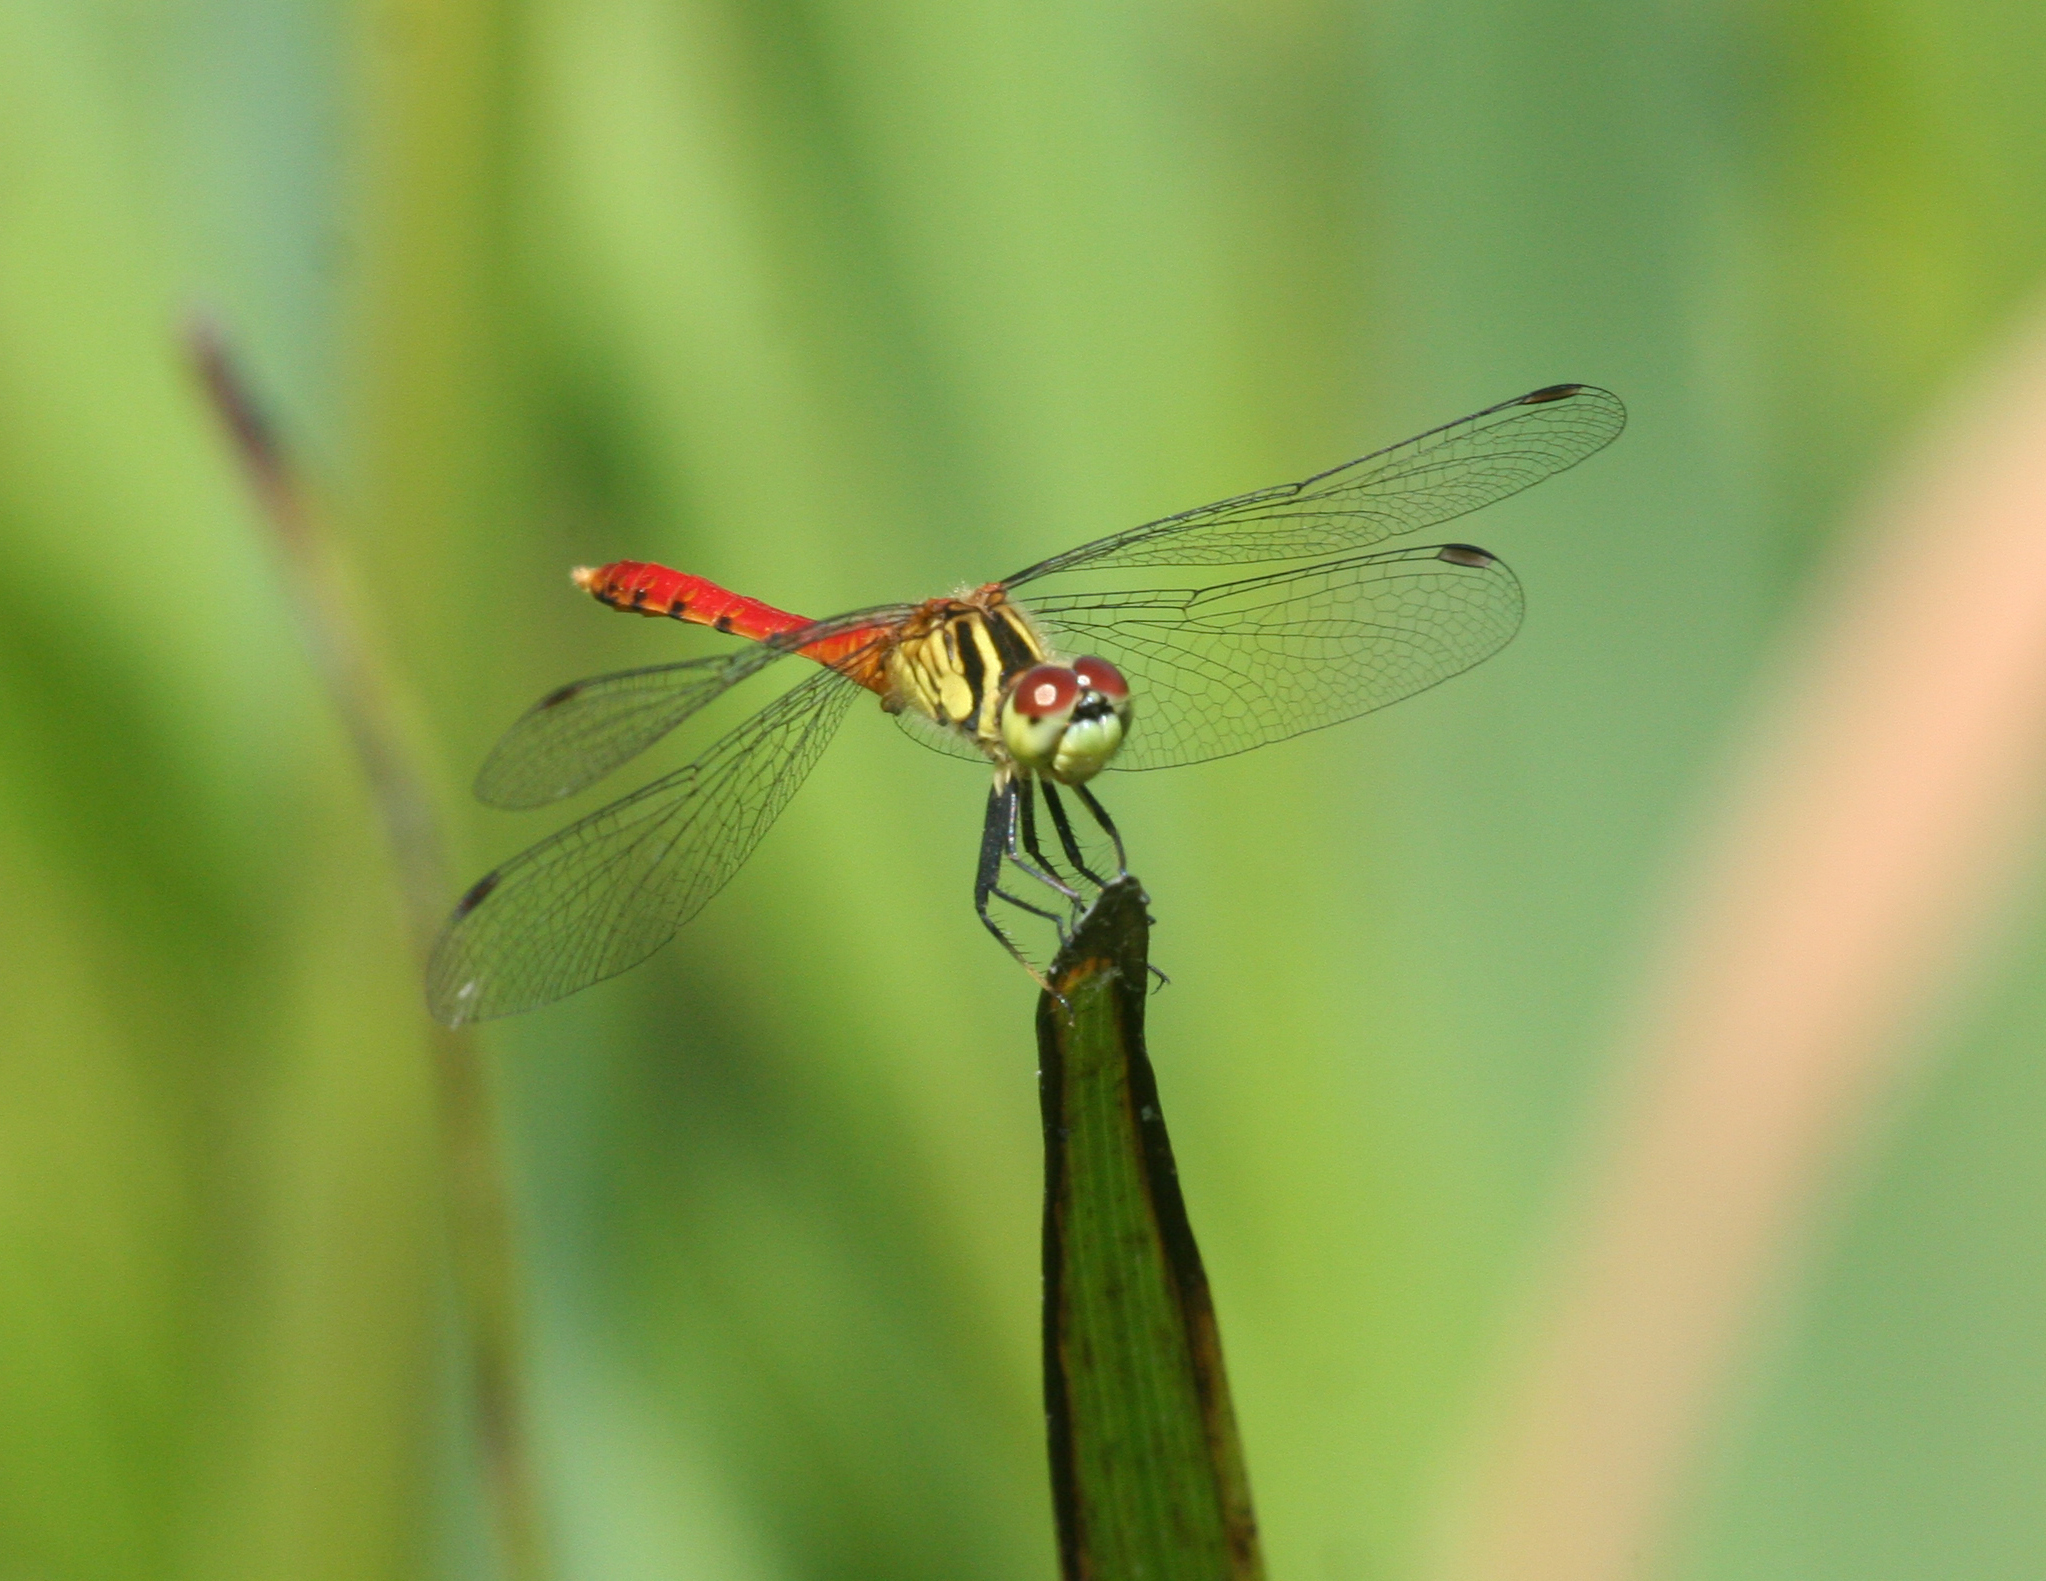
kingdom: Animalia
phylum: Arthropoda
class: Insecta
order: Odonata
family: Libellulidae
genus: Sympetrum
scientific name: Sympetrum kunckeli
